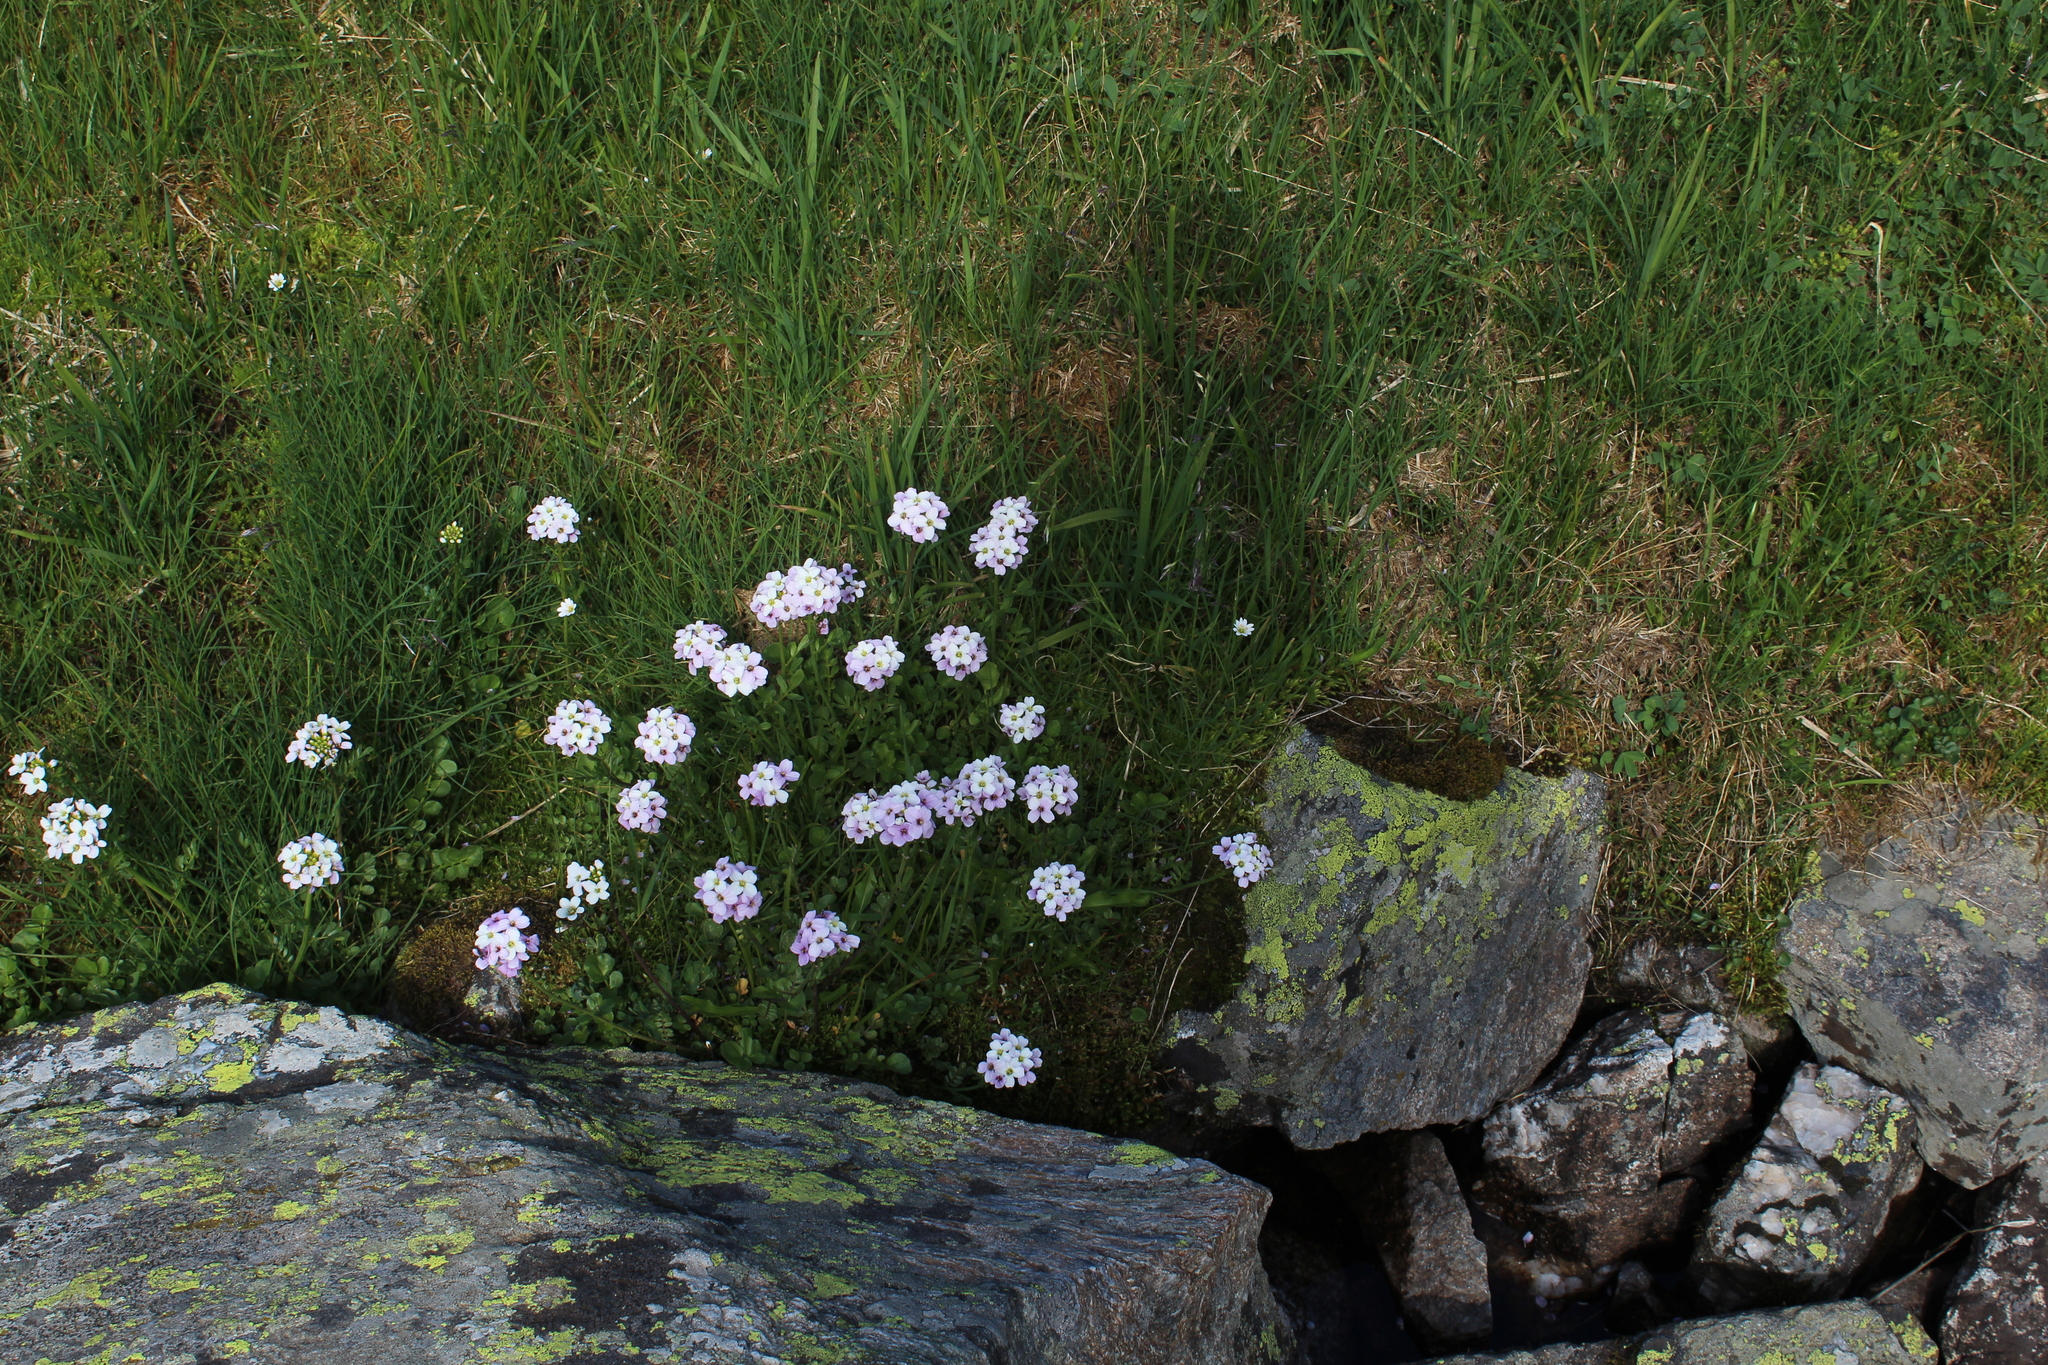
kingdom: Plantae
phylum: Tracheophyta
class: Magnoliopsida
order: Brassicales
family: Brassicaceae
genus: Cardamine
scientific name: Cardamine uliginosa
